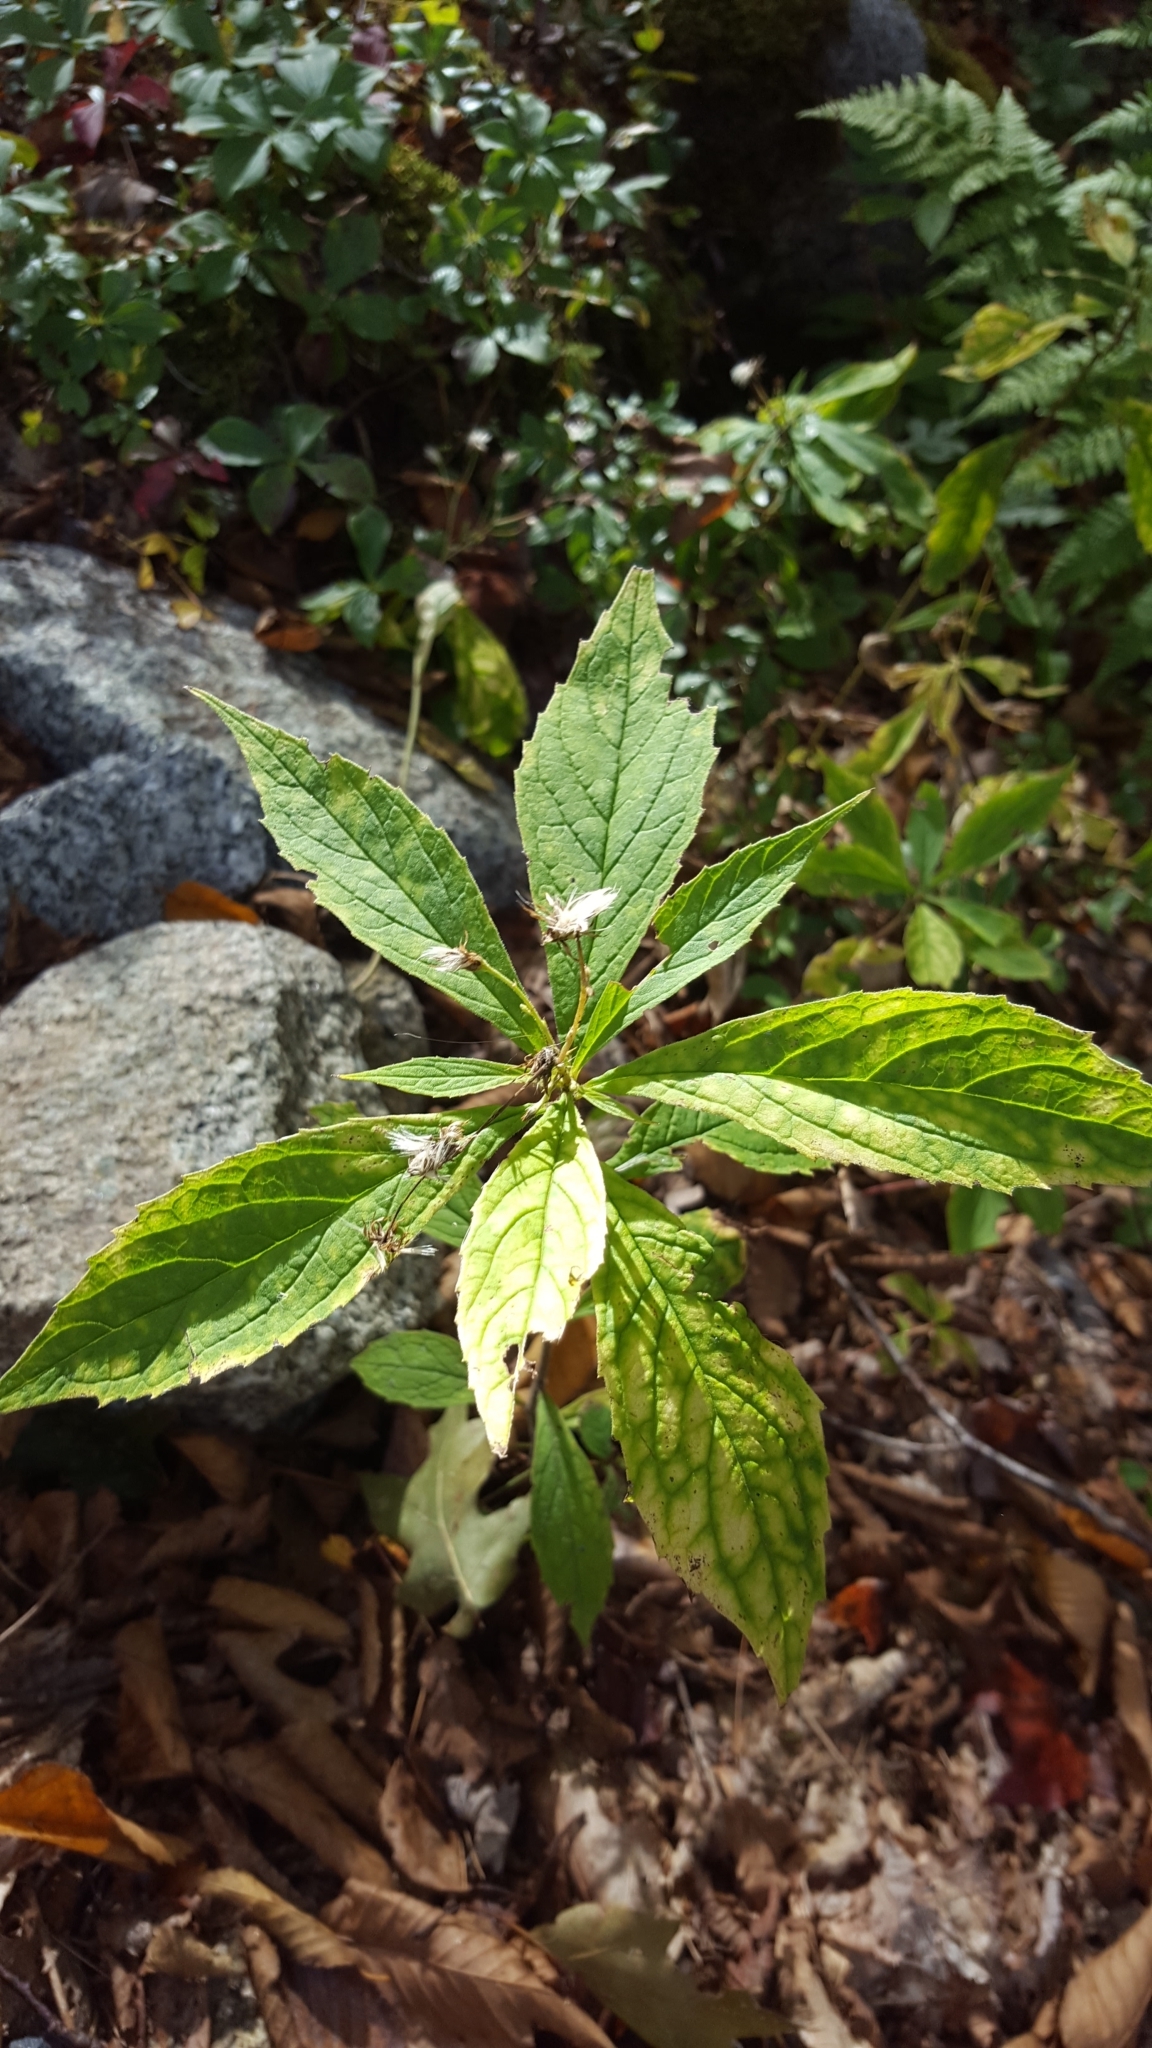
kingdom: Plantae
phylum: Tracheophyta
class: Magnoliopsida
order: Asterales
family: Asteraceae
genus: Oclemena
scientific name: Oclemena acuminata
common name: Mountain aster
